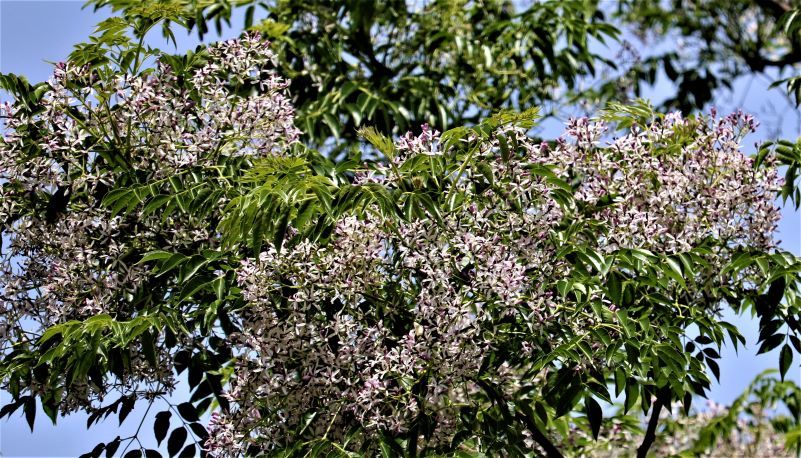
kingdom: Plantae
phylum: Tracheophyta
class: Magnoliopsida
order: Sapindales
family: Meliaceae
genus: Melia
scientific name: Melia azedarach
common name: Chinaberrytree
